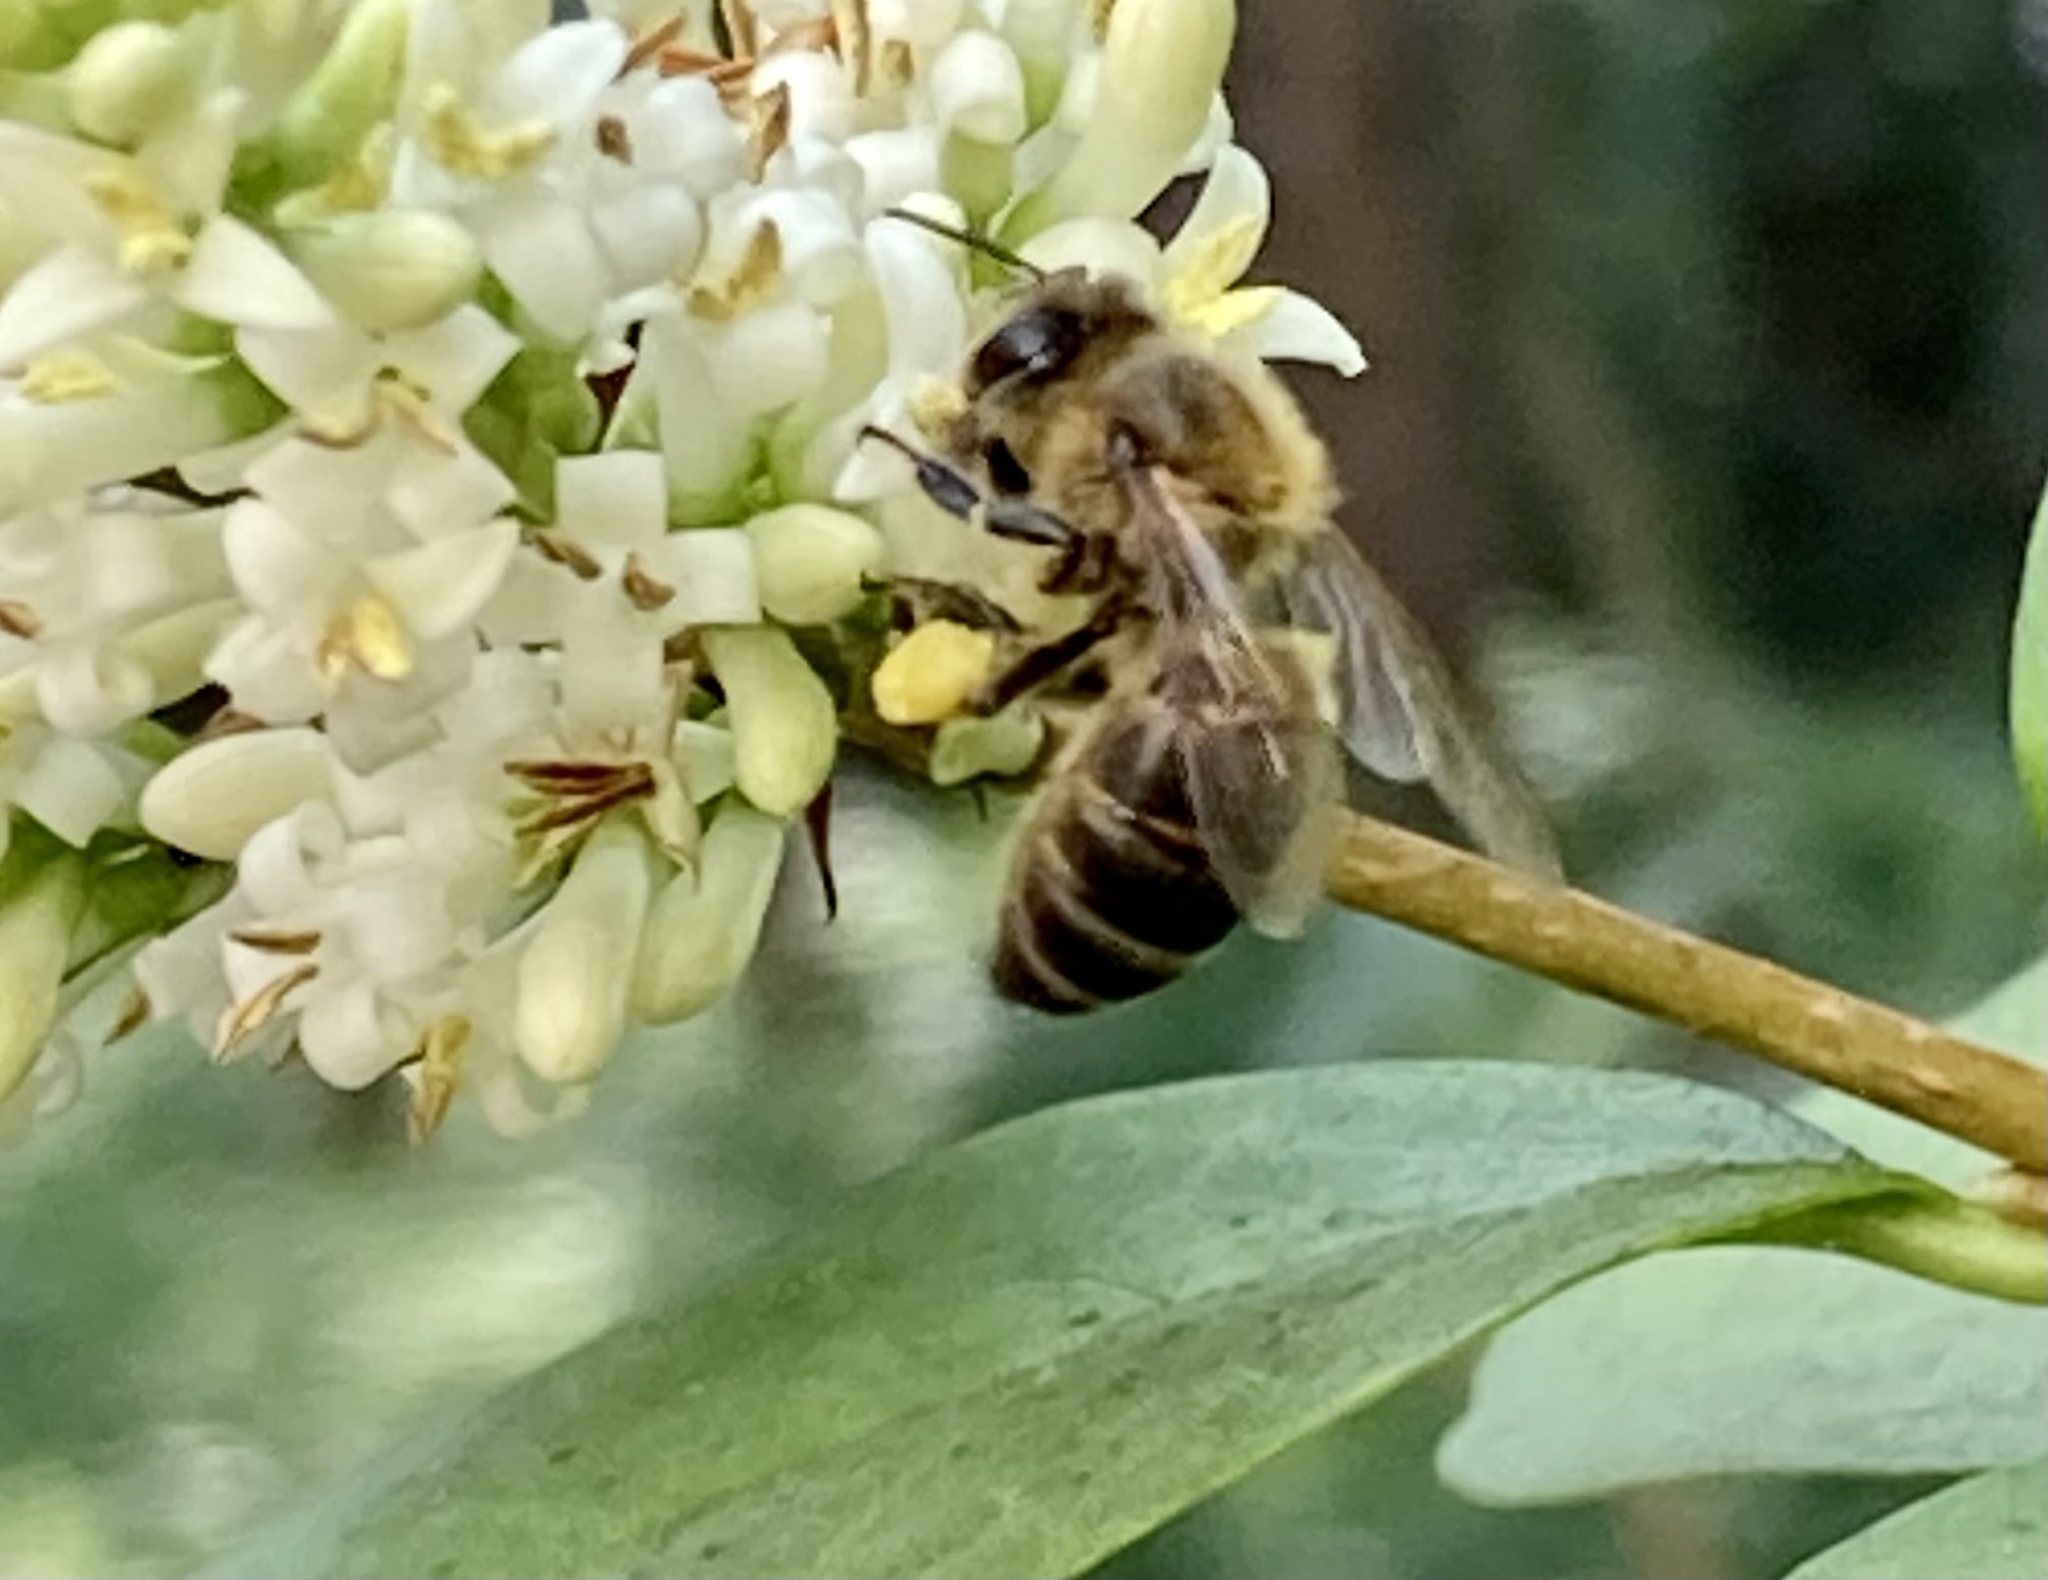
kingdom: Animalia
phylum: Arthropoda
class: Insecta
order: Hymenoptera
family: Apidae
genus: Apis
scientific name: Apis mellifera
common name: Honey bee
